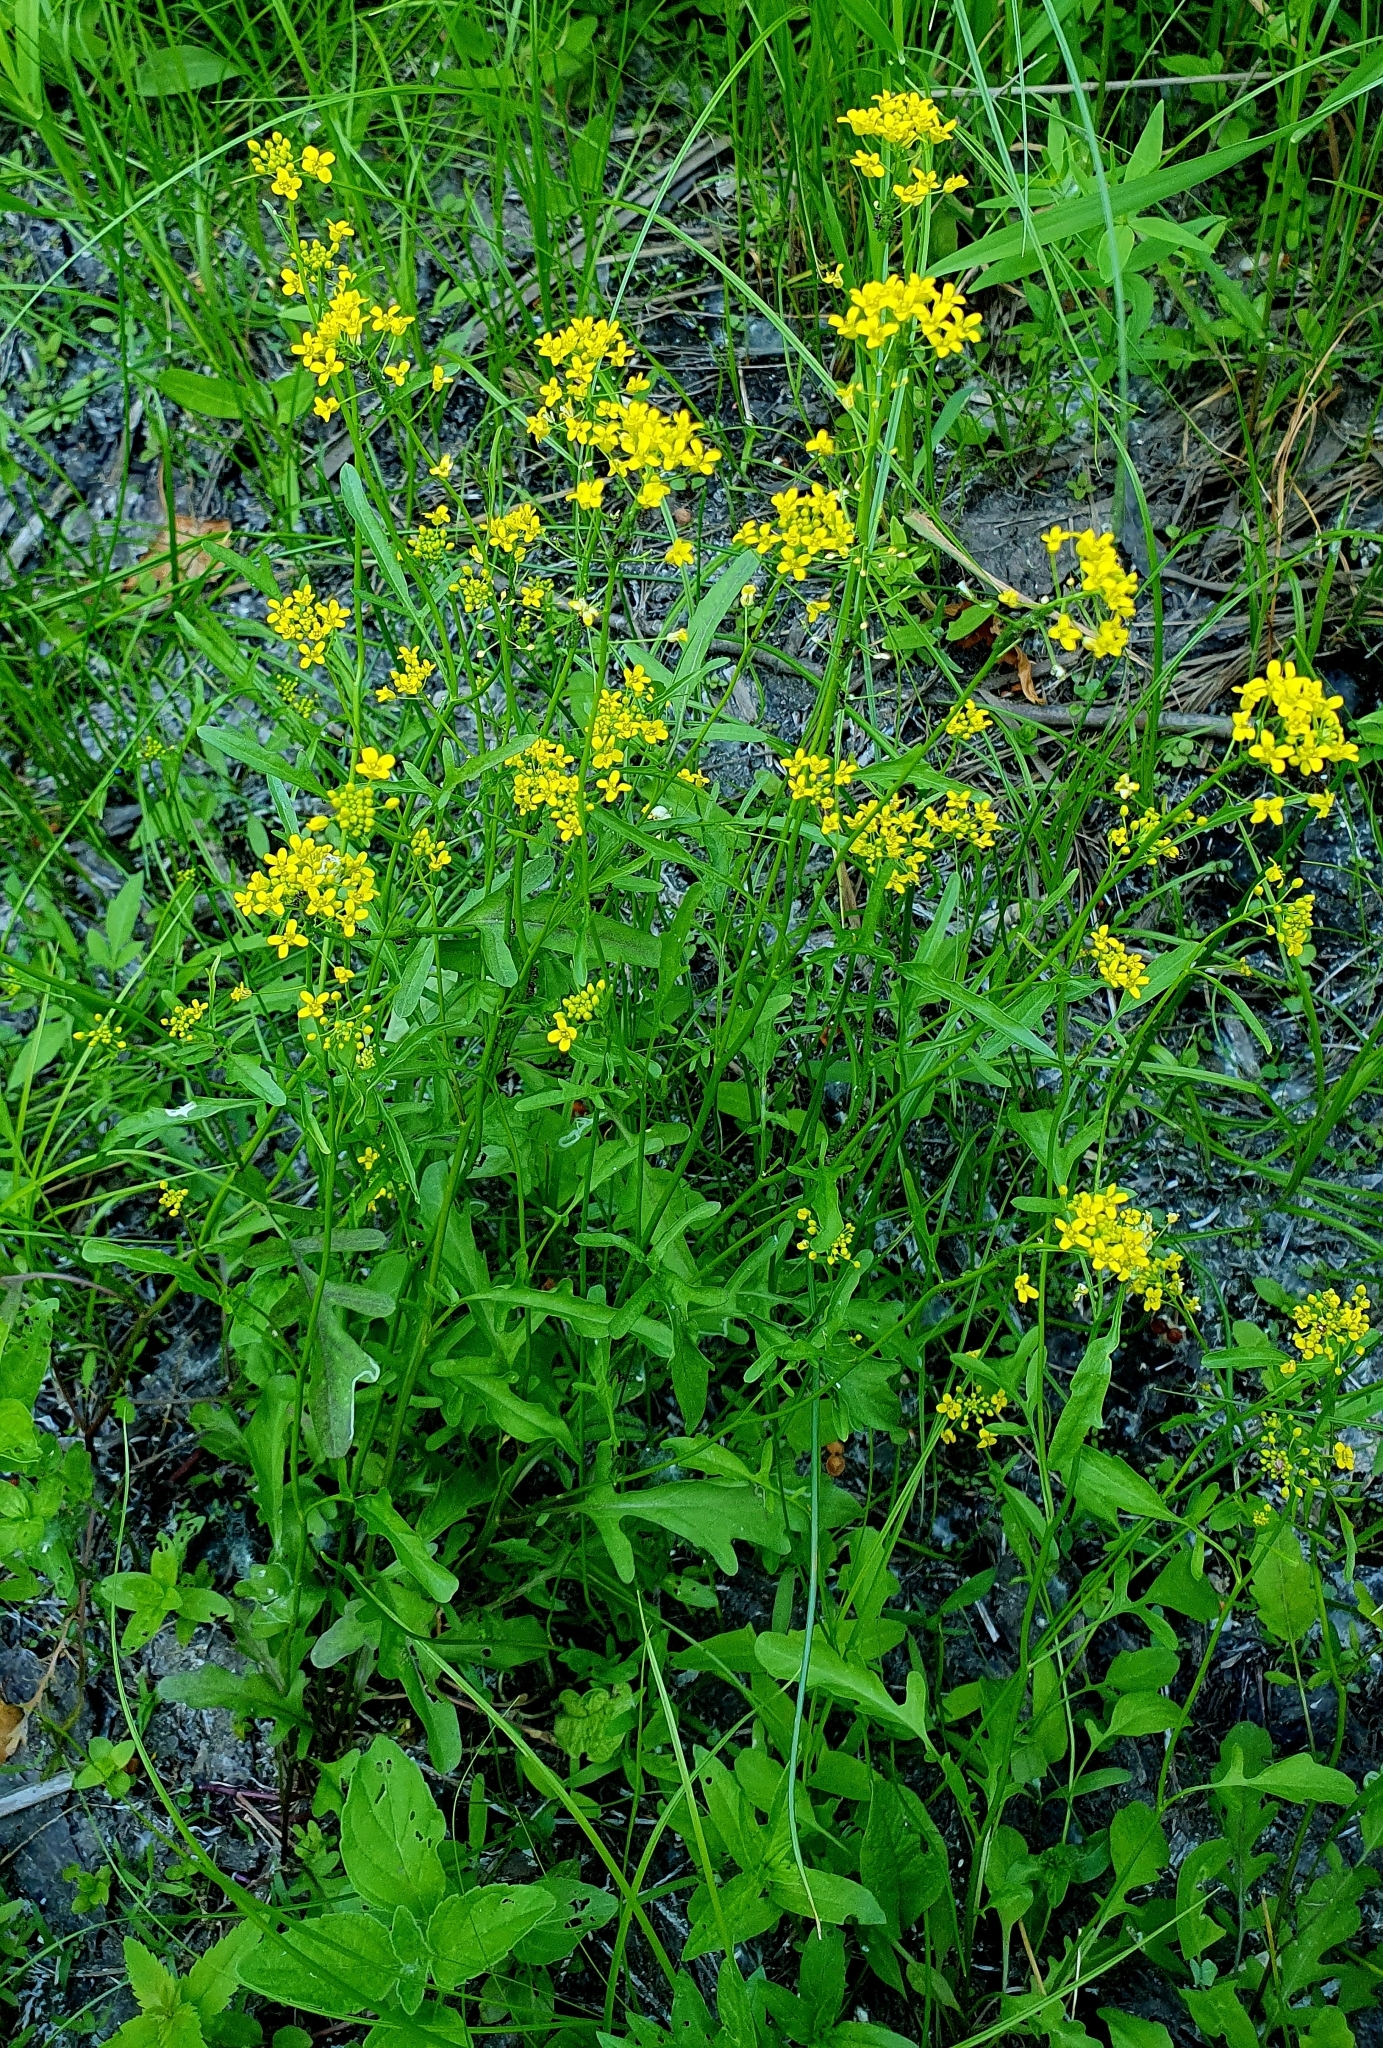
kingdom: Plantae
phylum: Tracheophyta
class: Magnoliopsida
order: Brassicales
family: Brassicaceae
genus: Rorippa
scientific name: Rorippa brachycarpa
